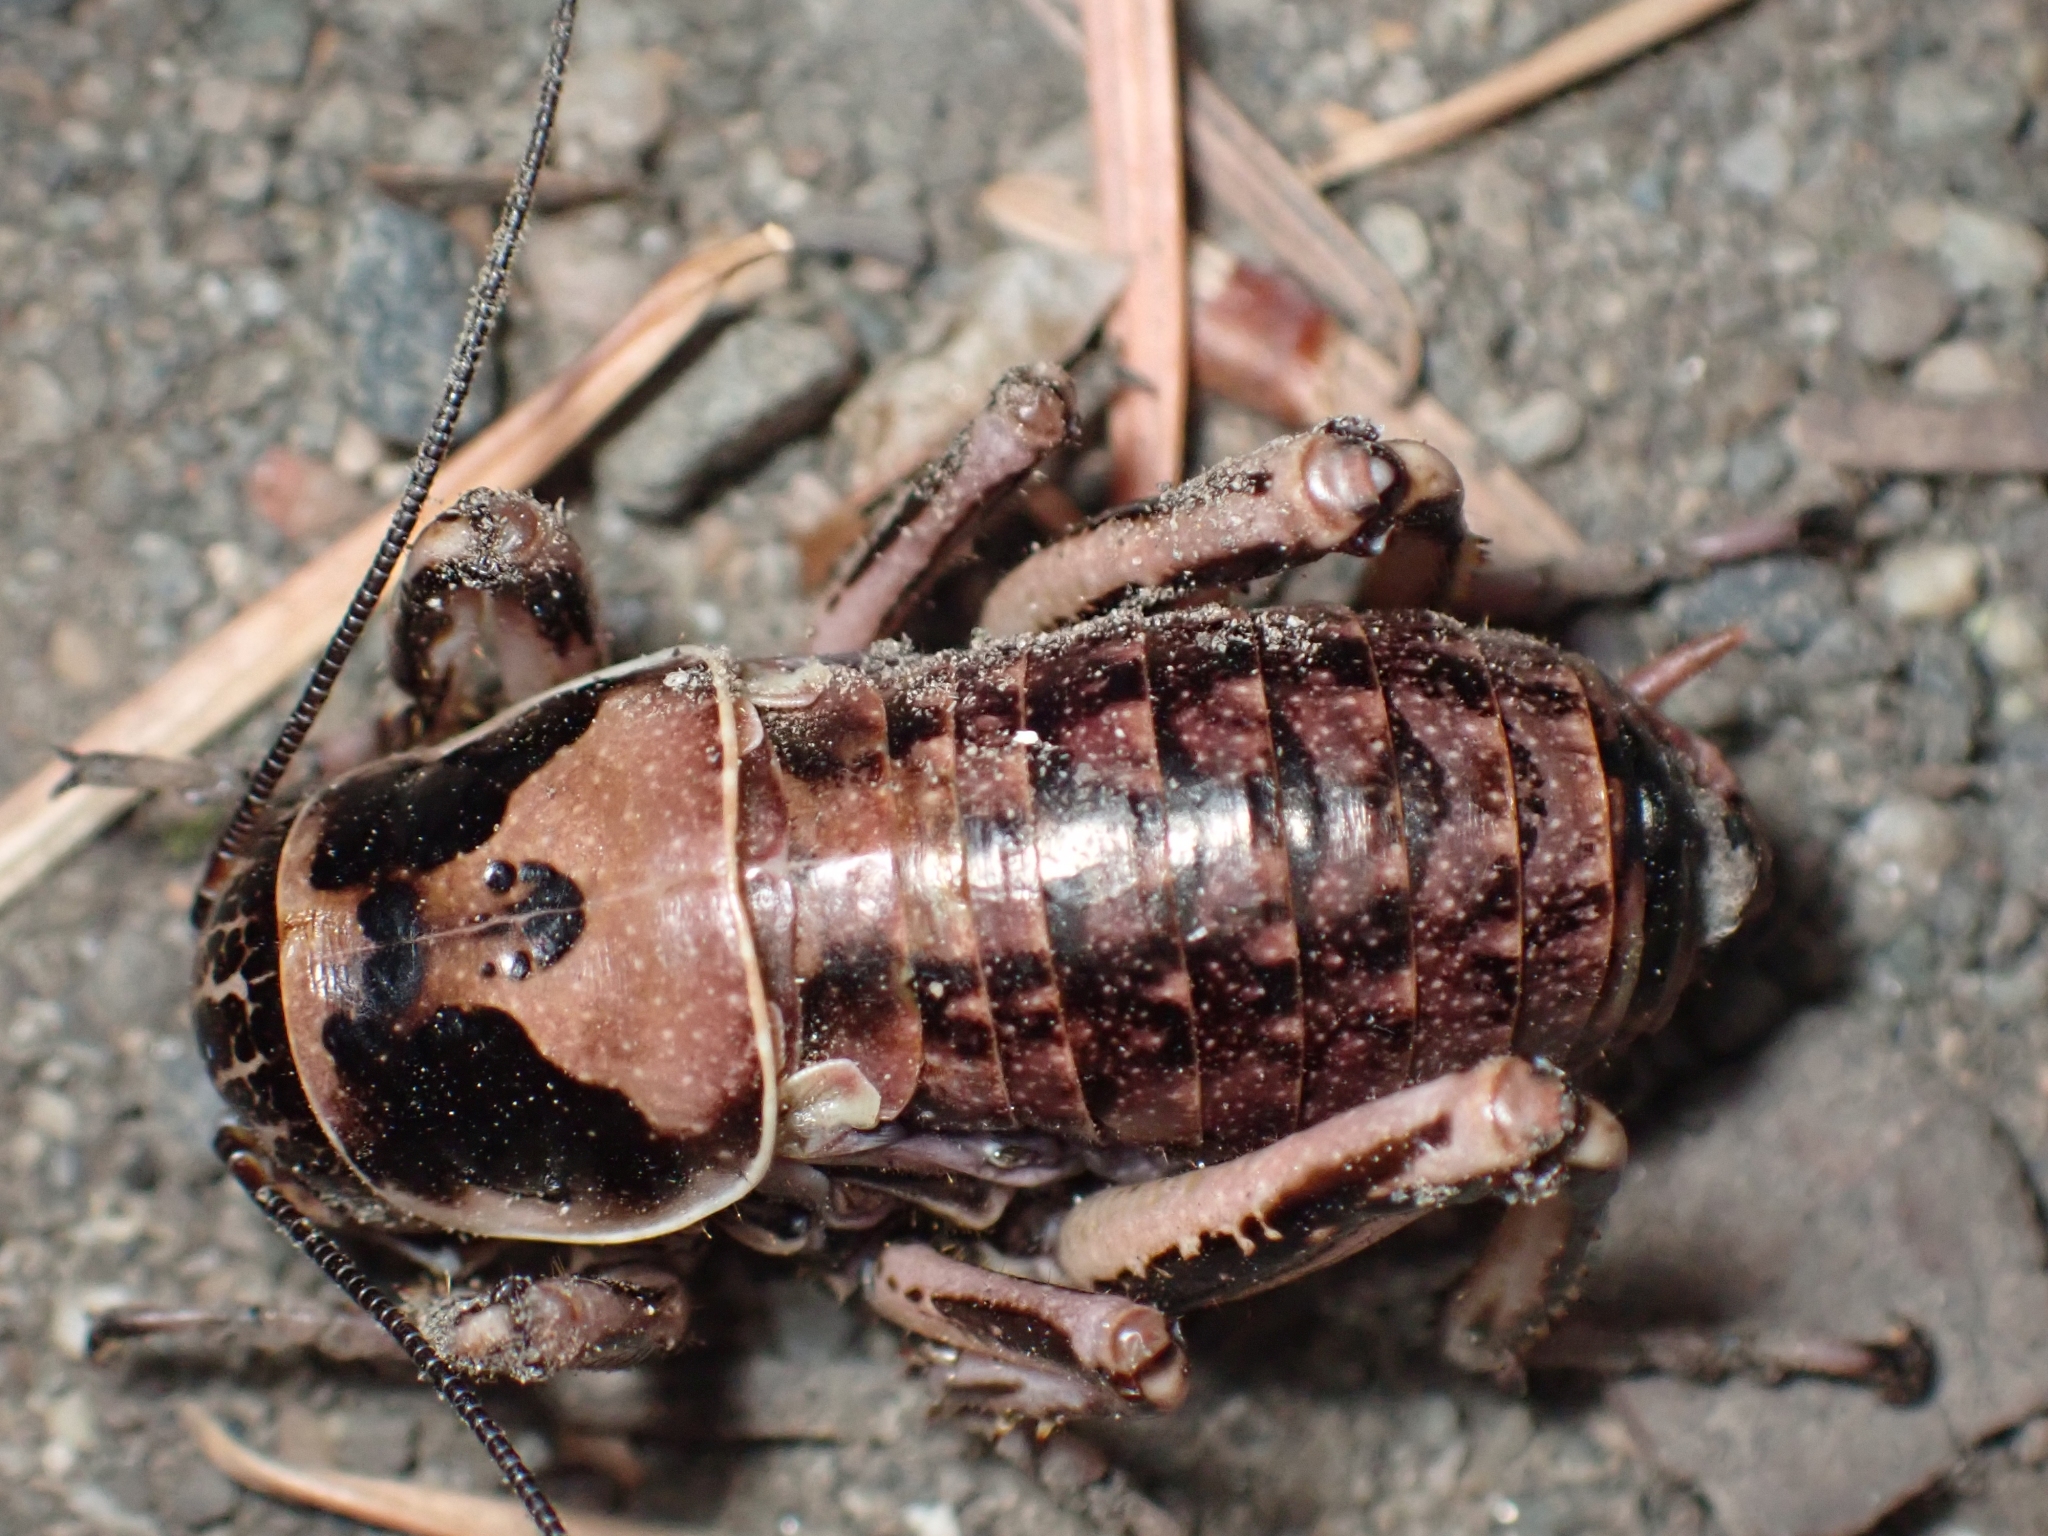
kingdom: Animalia
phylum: Arthropoda
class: Insecta
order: Orthoptera
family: Prophalangopsidae
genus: Cyphoderris
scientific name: Cyphoderris monstrosa
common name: Great grig
